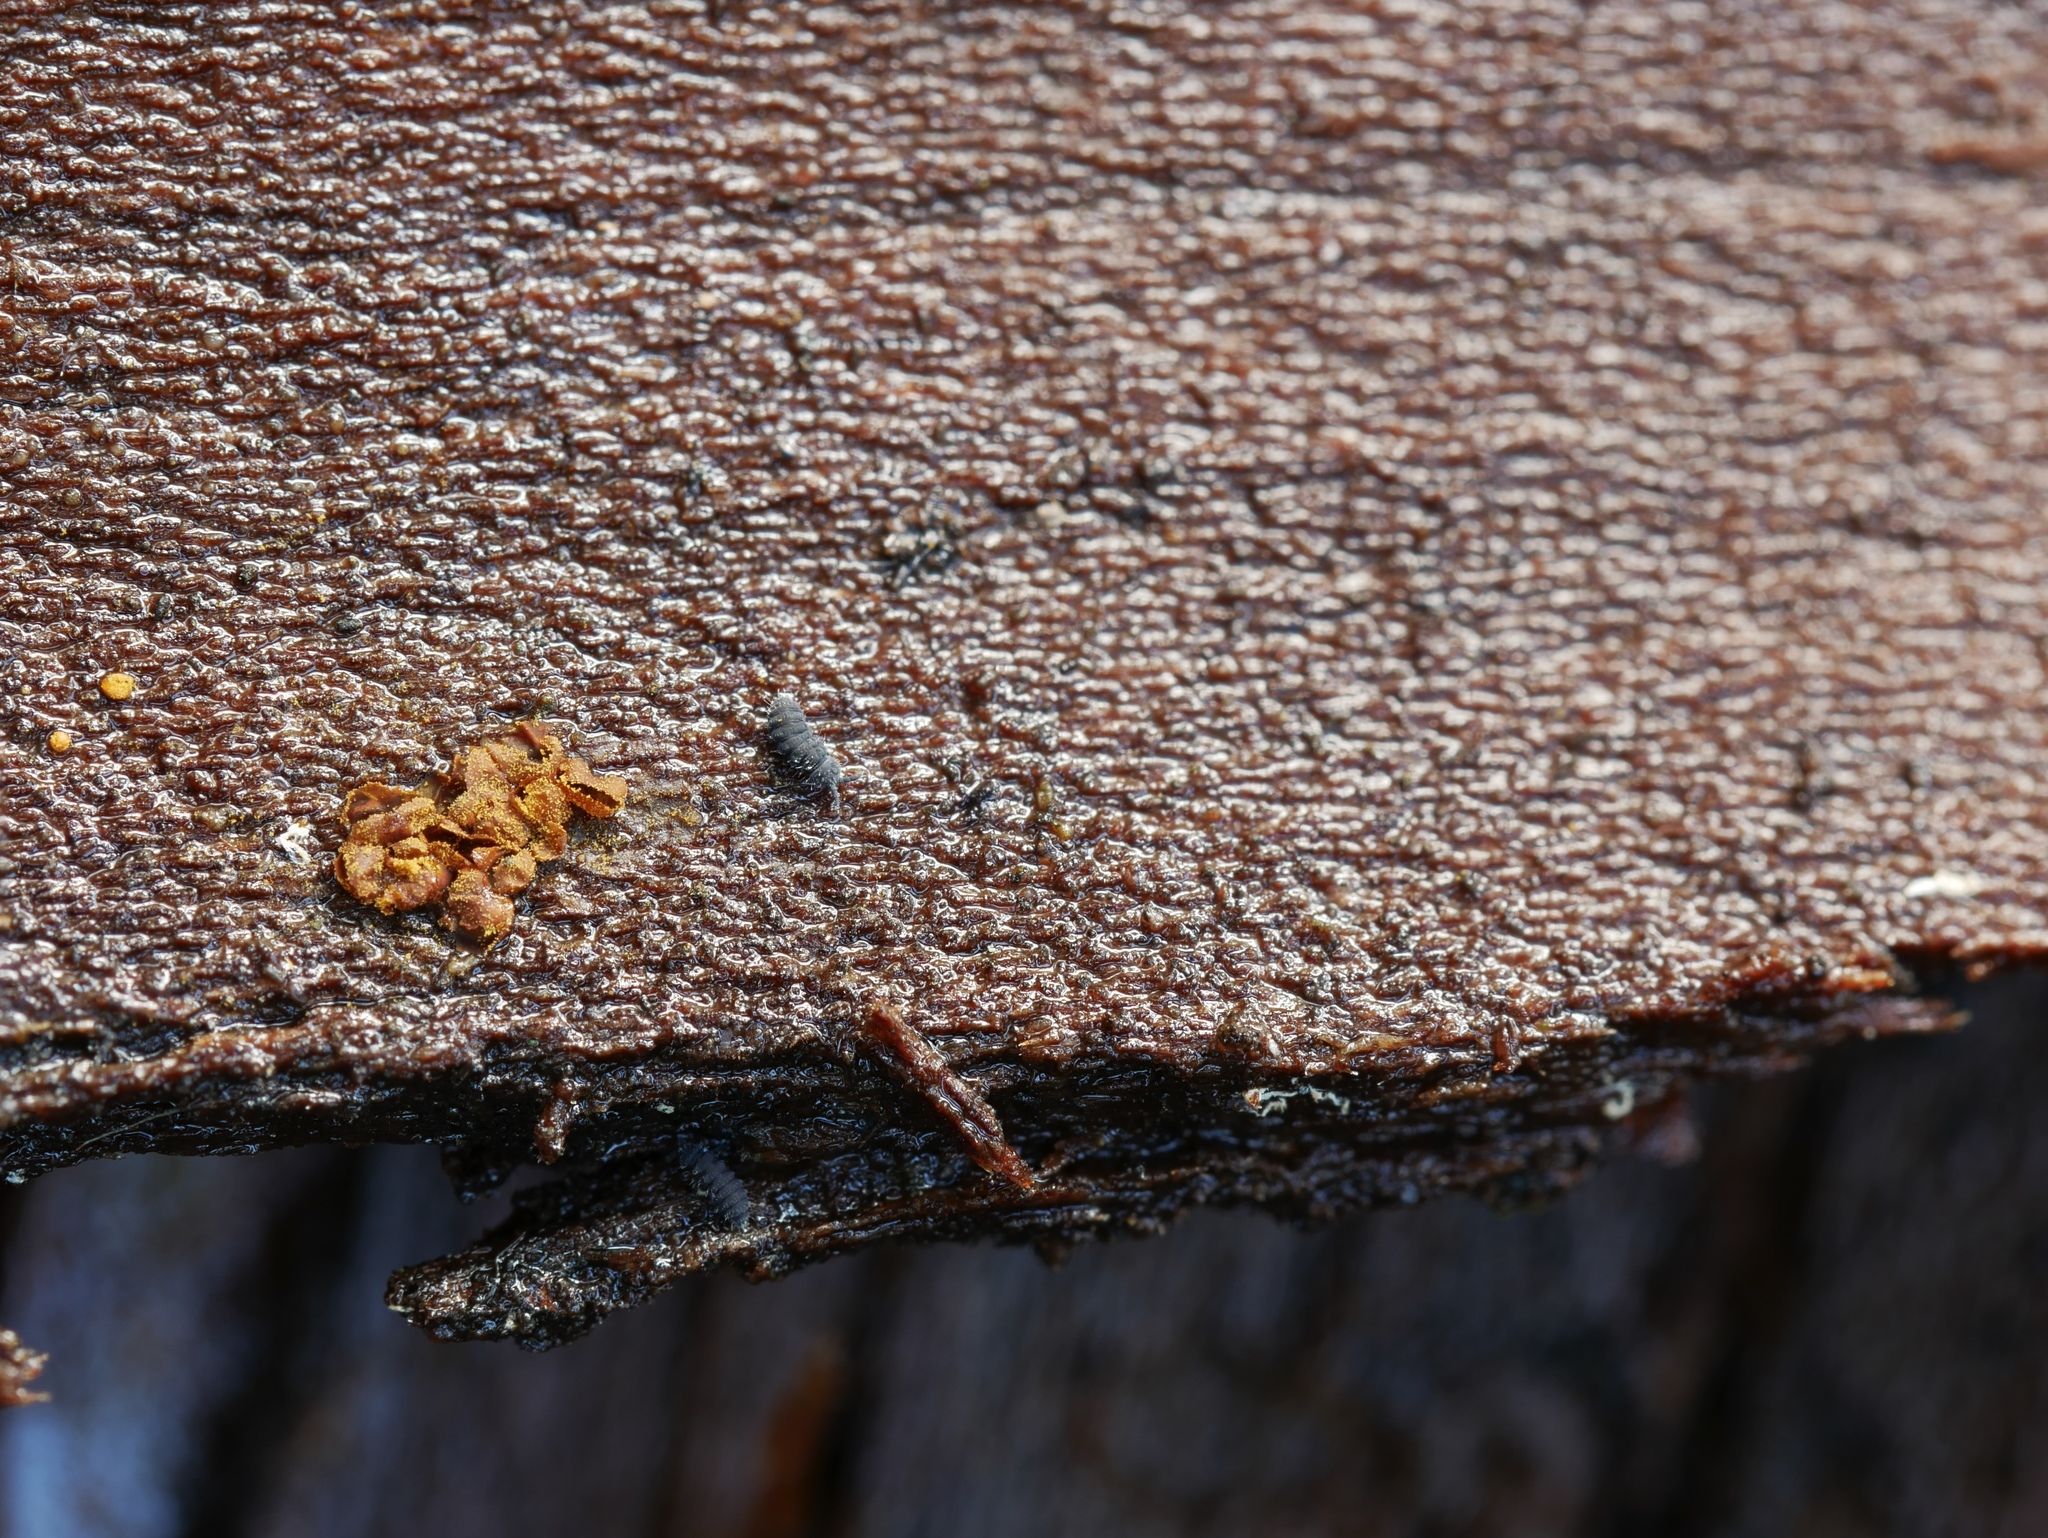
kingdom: Protozoa
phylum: Mycetozoa
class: Myxomycetes
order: Trichiales
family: Trichiaceae
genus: Trichia
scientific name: Trichia contorta
